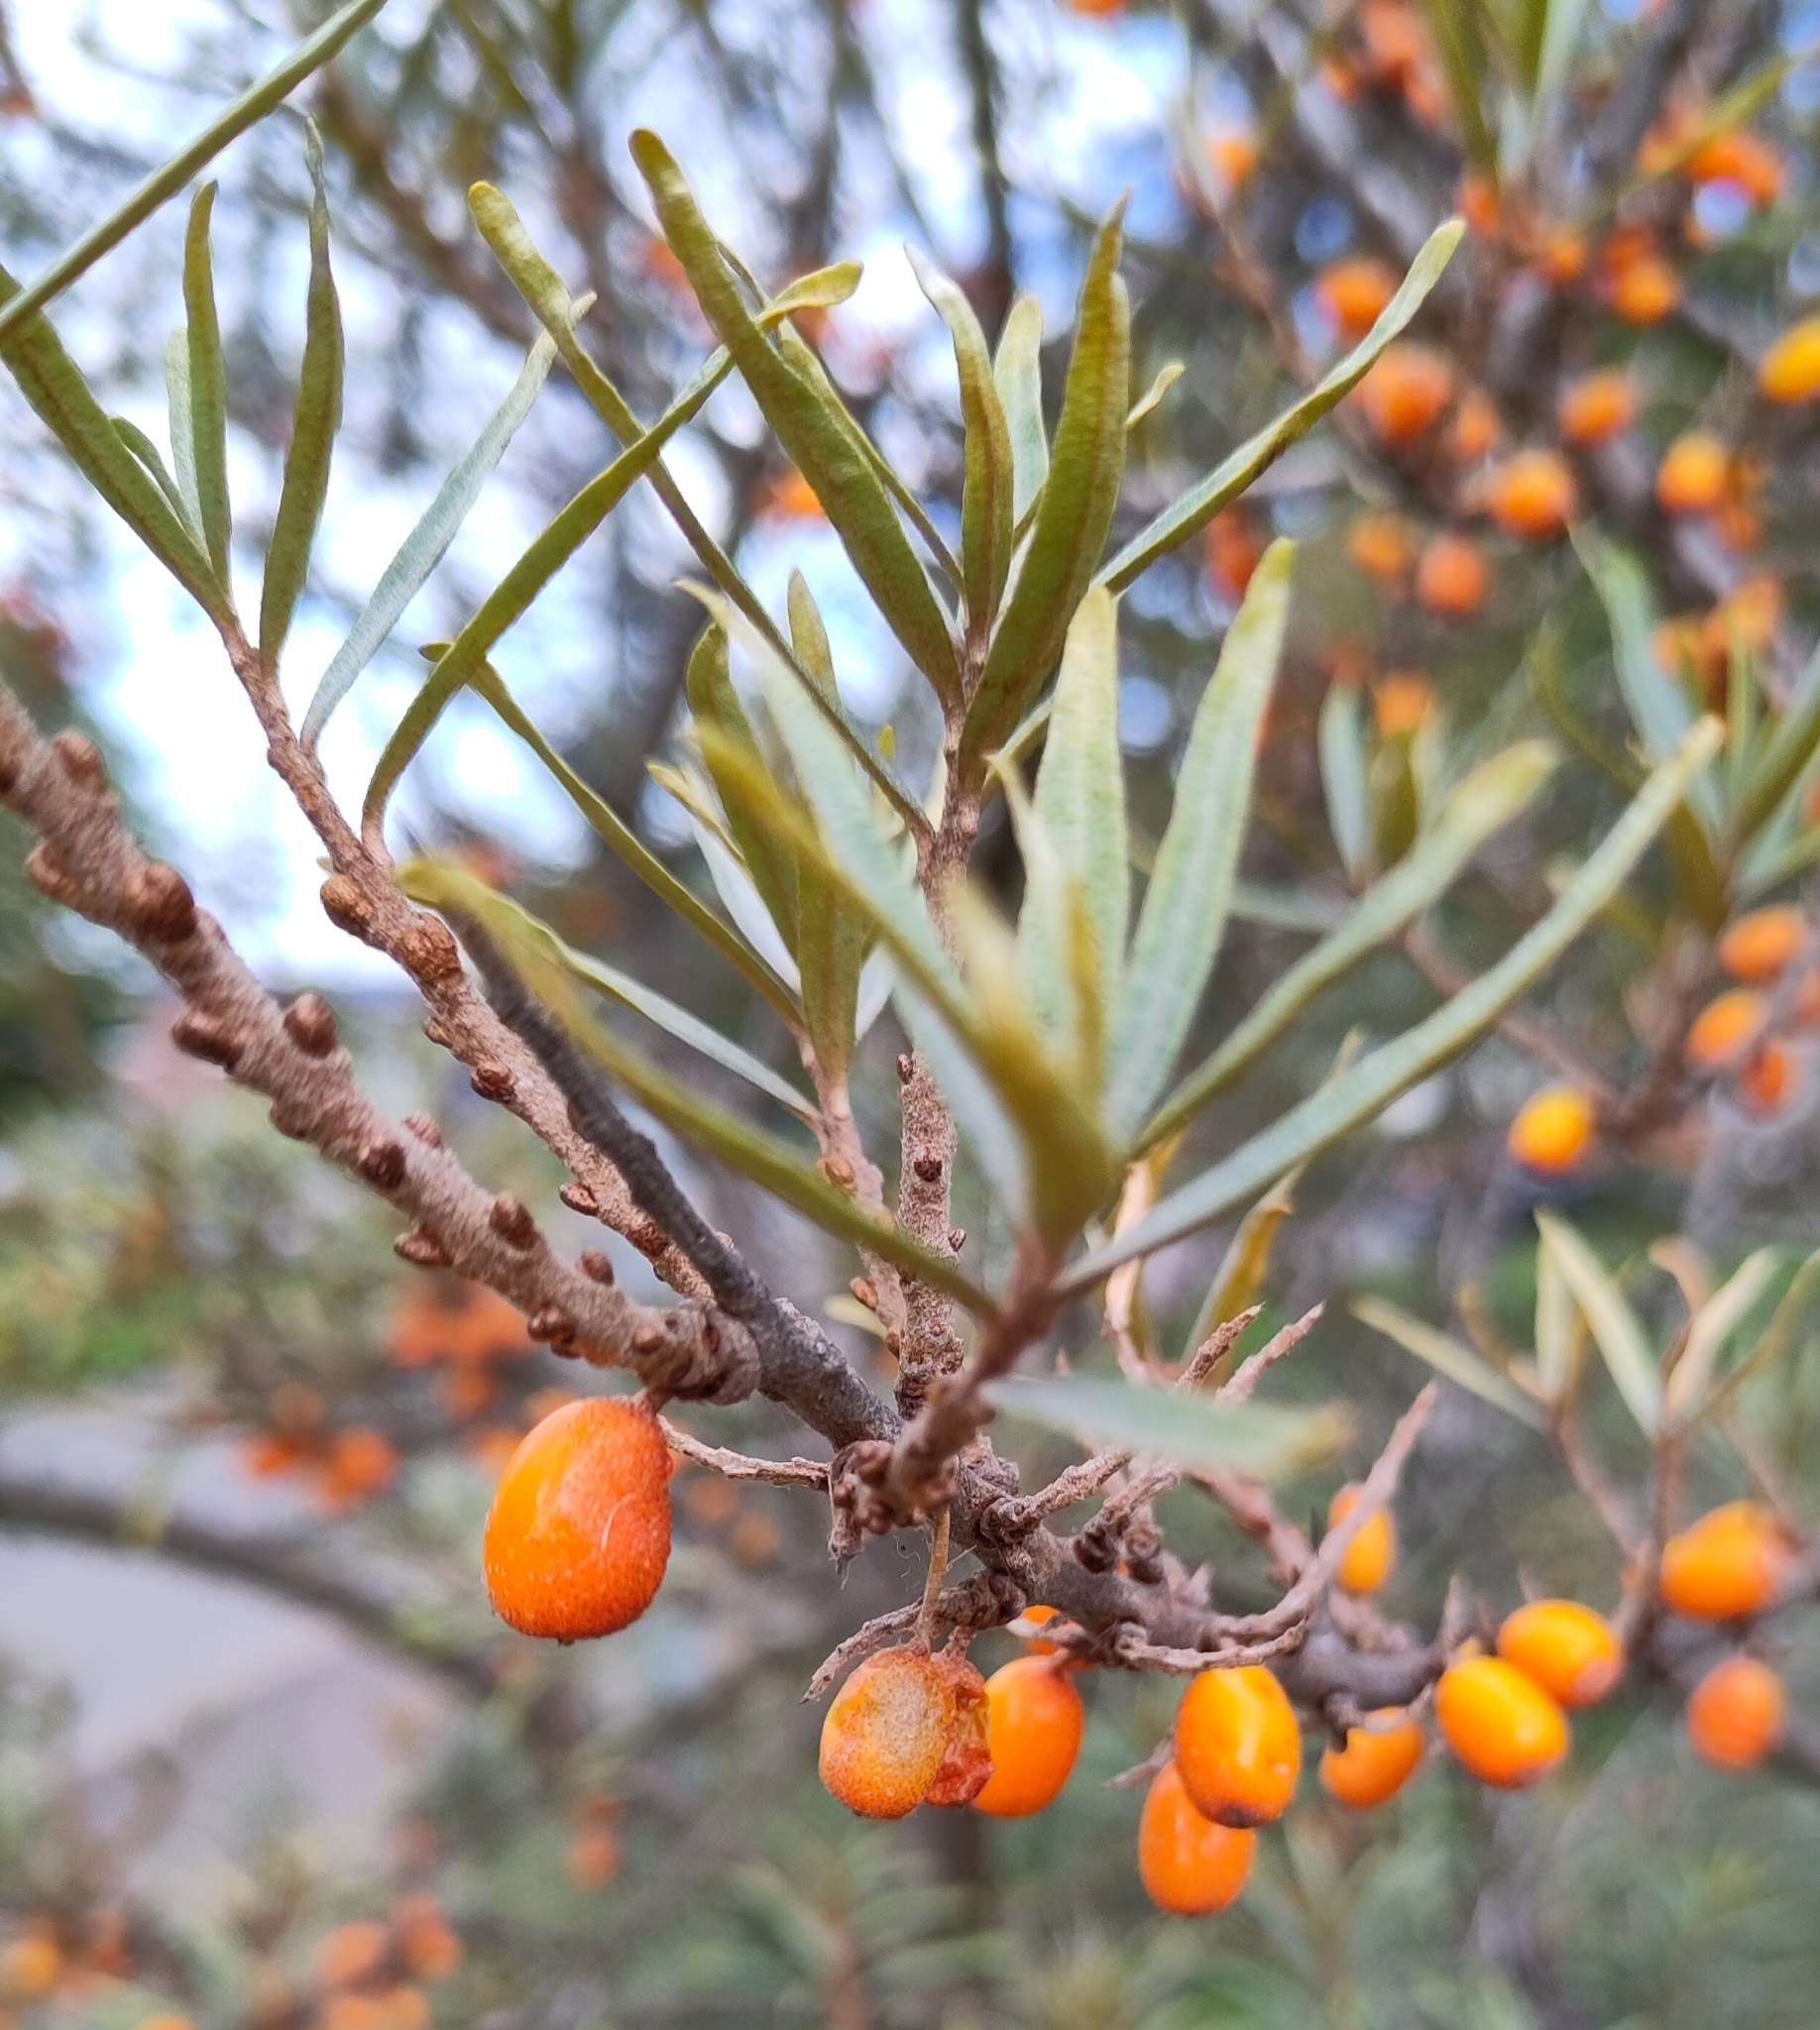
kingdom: Plantae
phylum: Tracheophyta
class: Magnoliopsida
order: Rosales
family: Elaeagnaceae
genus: Hippophae
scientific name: Hippophae rhamnoides
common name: Sea-buckthorn
